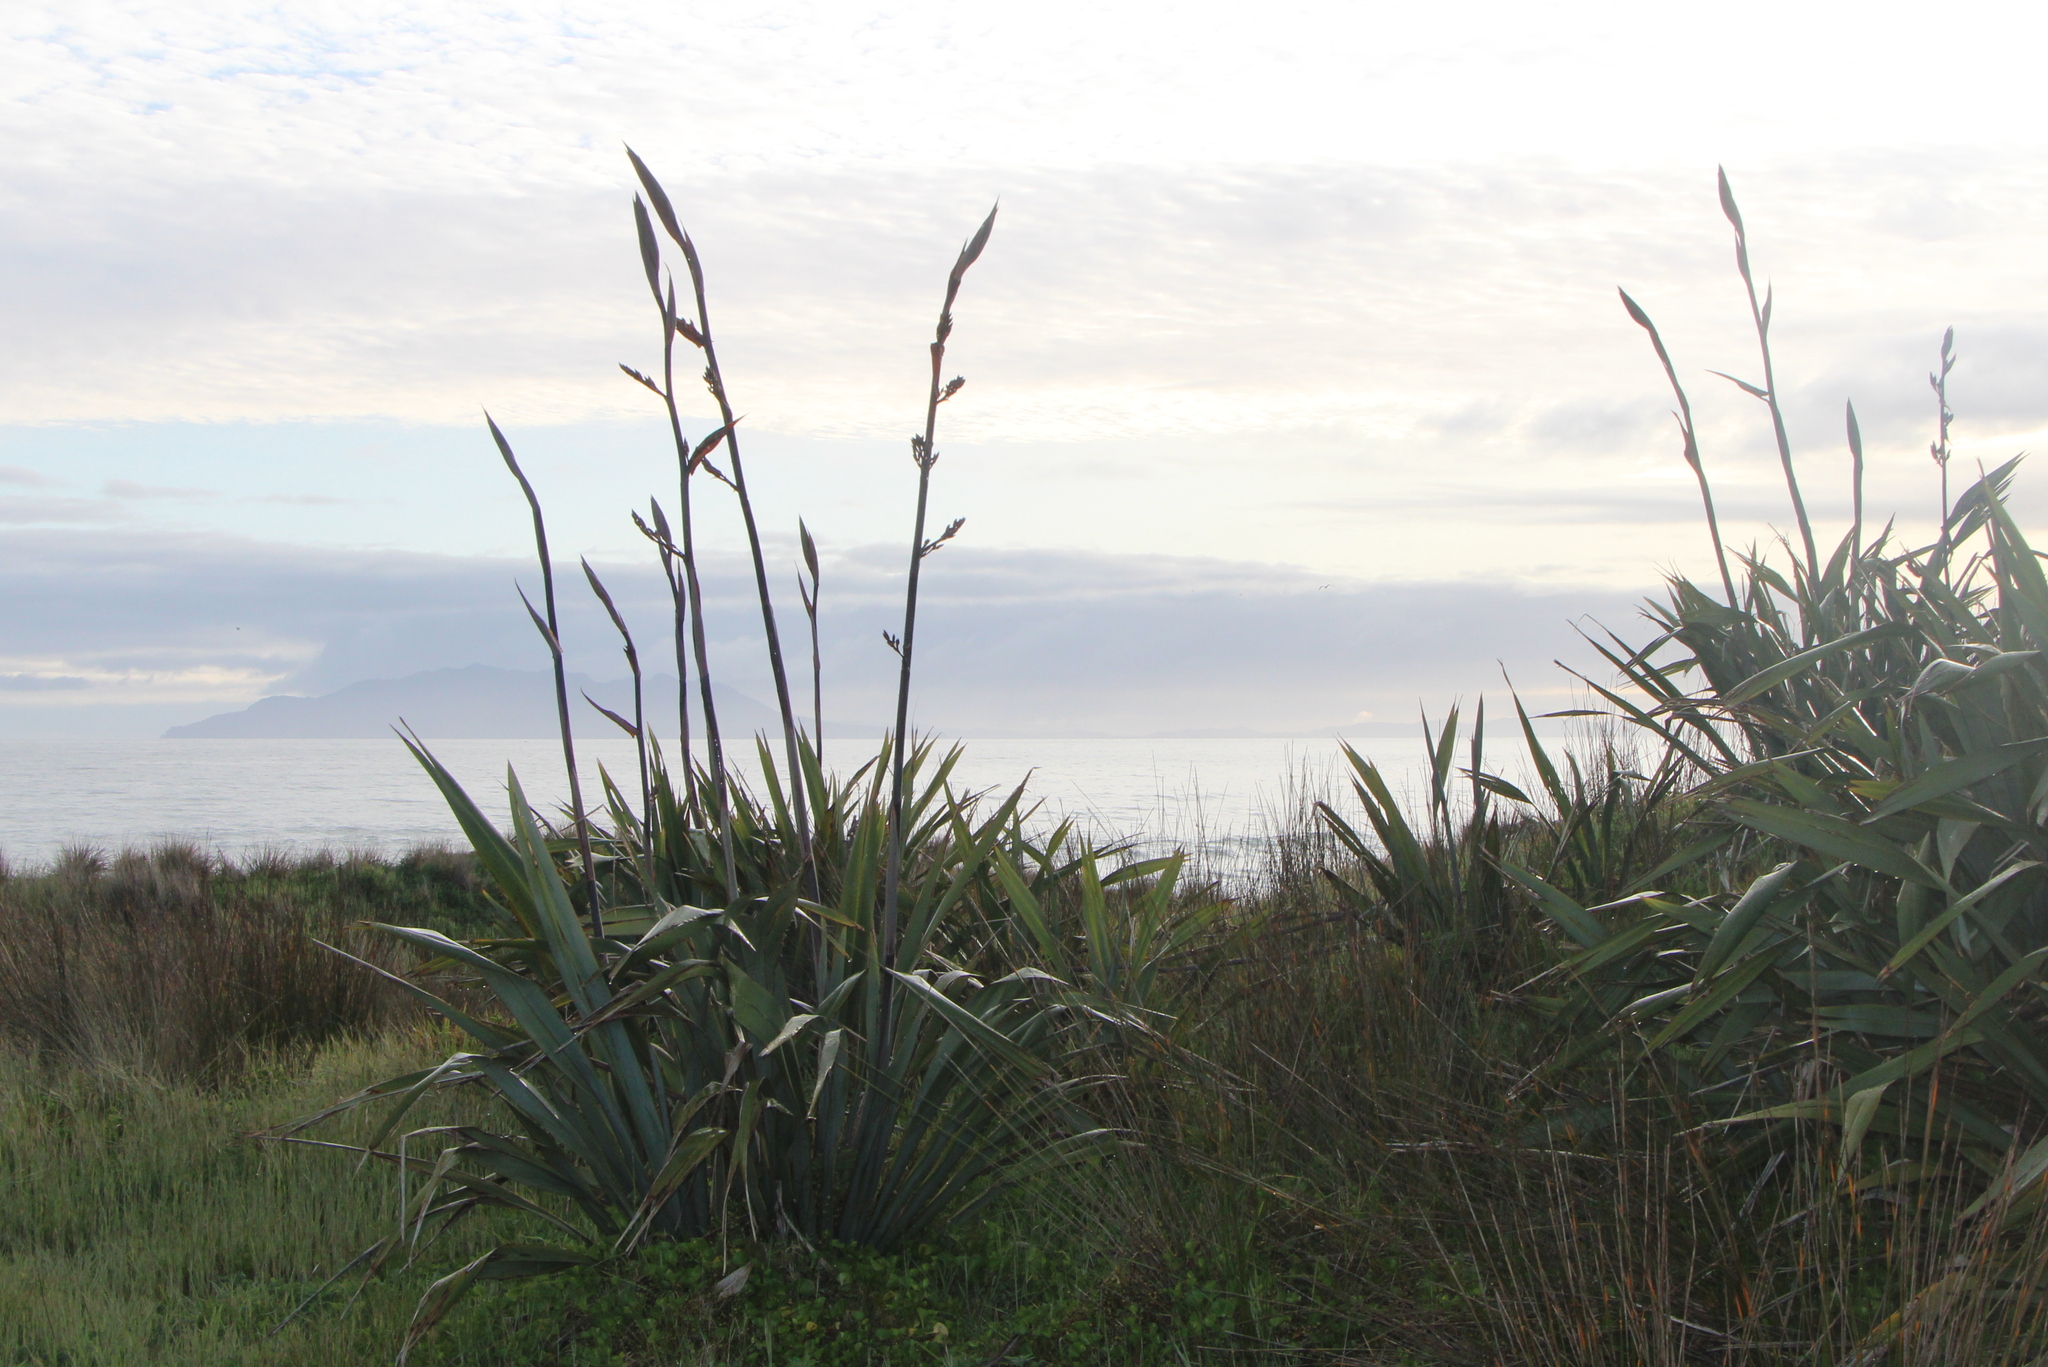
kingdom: Plantae
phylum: Tracheophyta
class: Liliopsida
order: Asparagales
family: Asphodelaceae
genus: Phormium
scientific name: Phormium tenax
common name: New zealand flax
